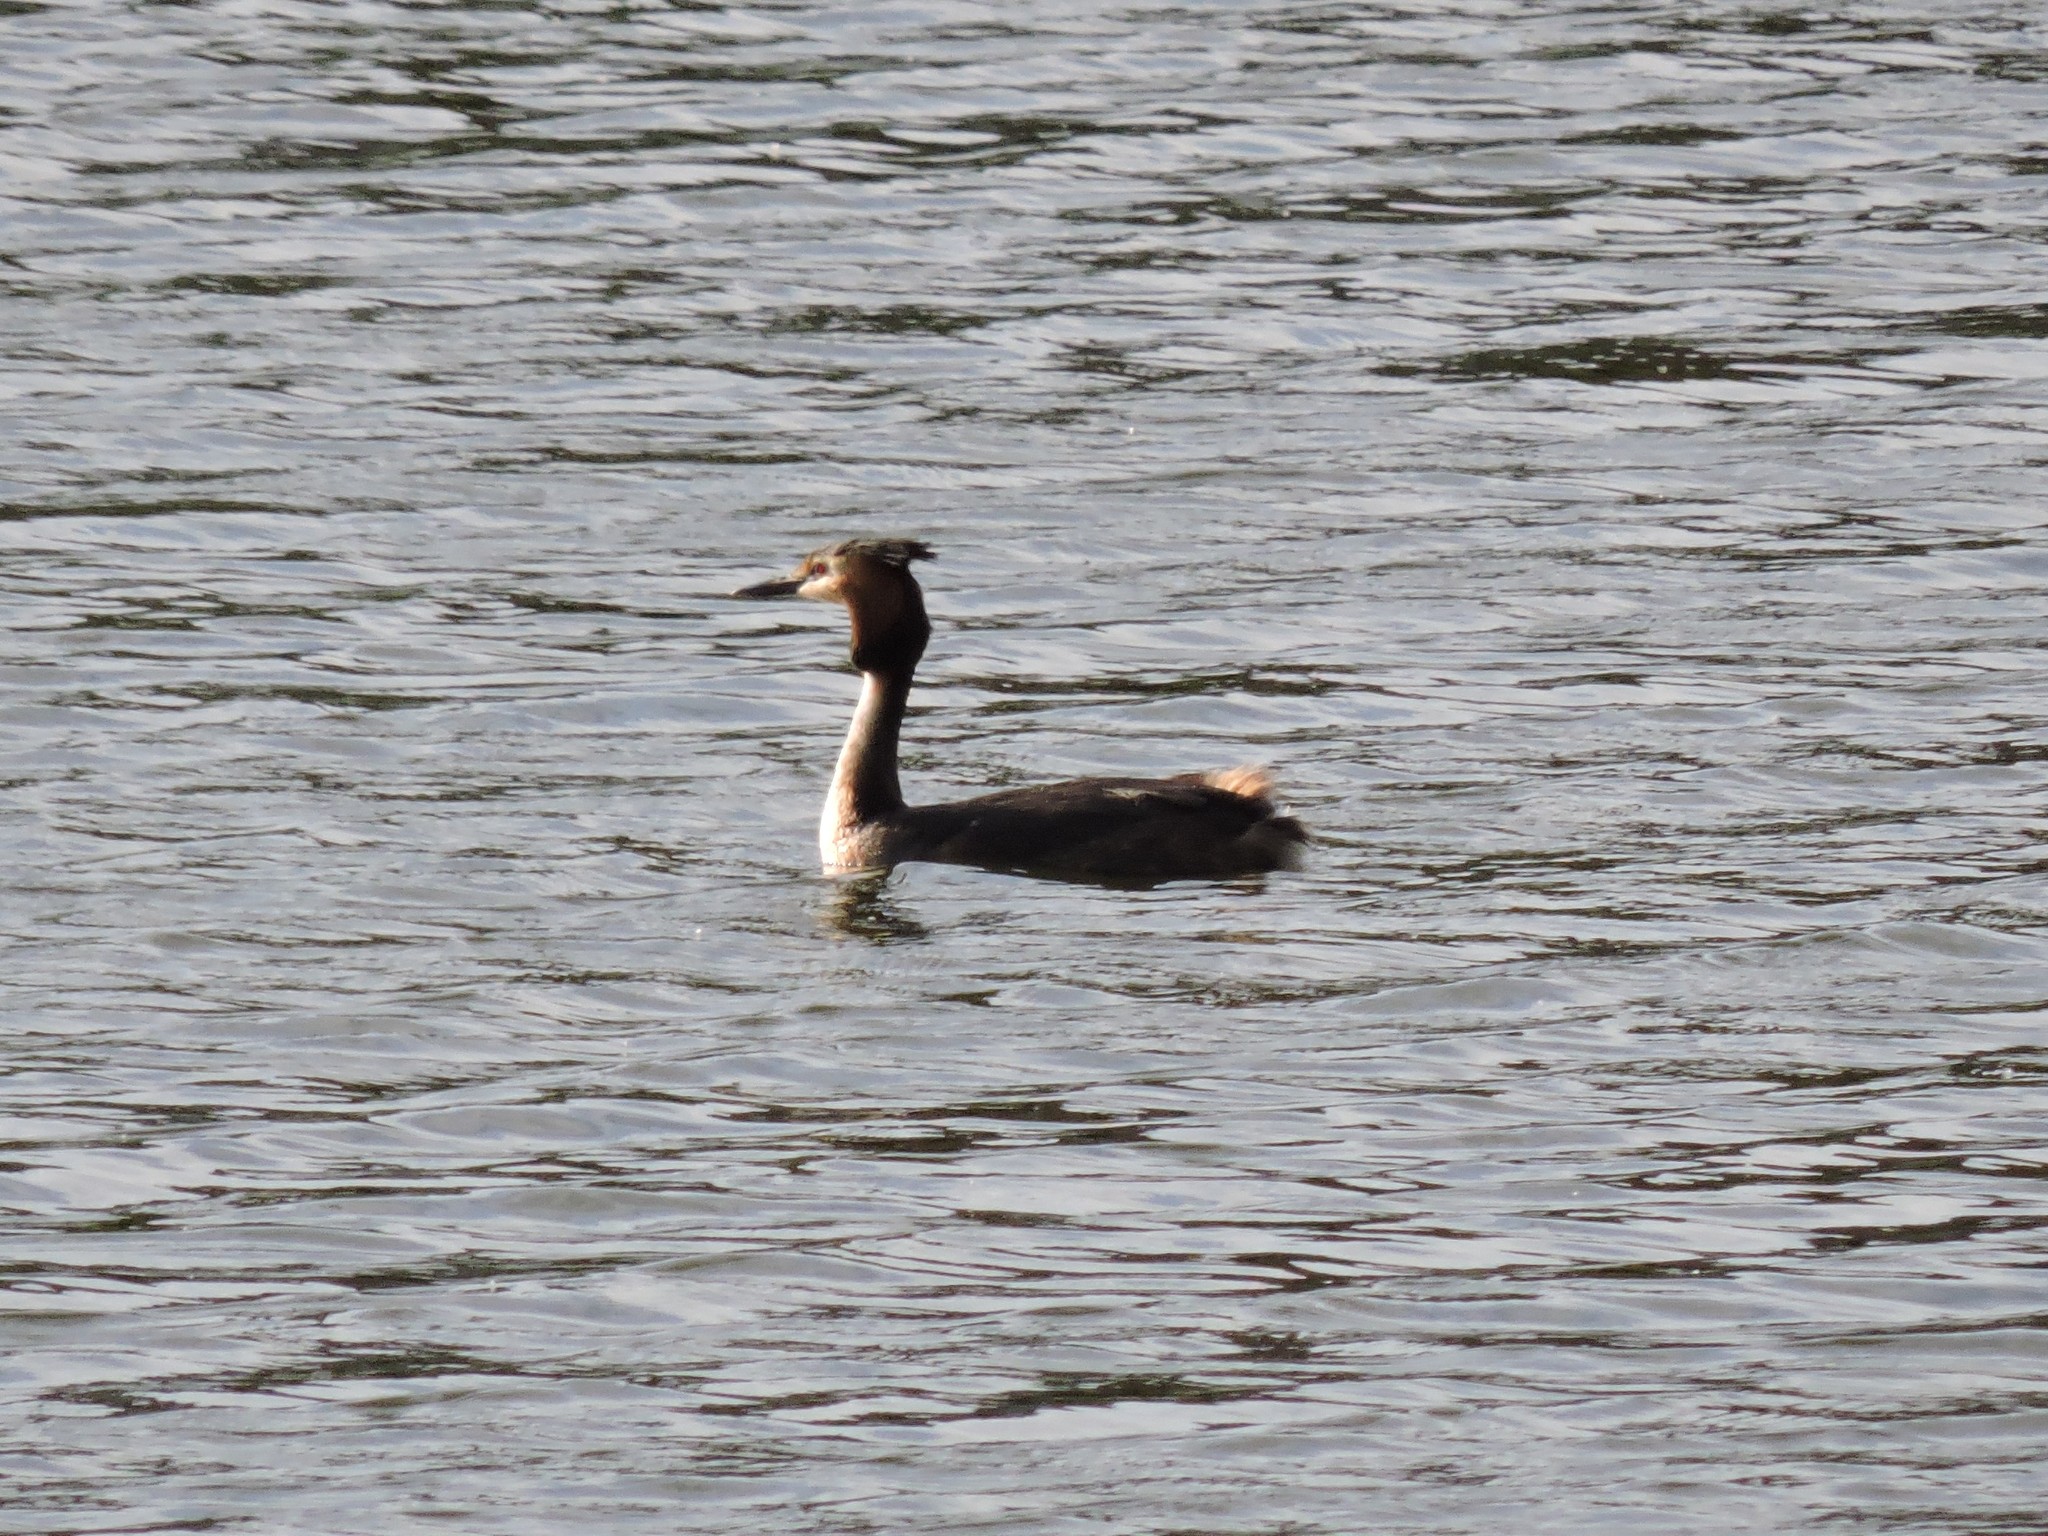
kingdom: Animalia
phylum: Chordata
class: Aves
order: Podicipediformes
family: Podicipedidae
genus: Podiceps
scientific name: Podiceps cristatus
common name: Great crested grebe
